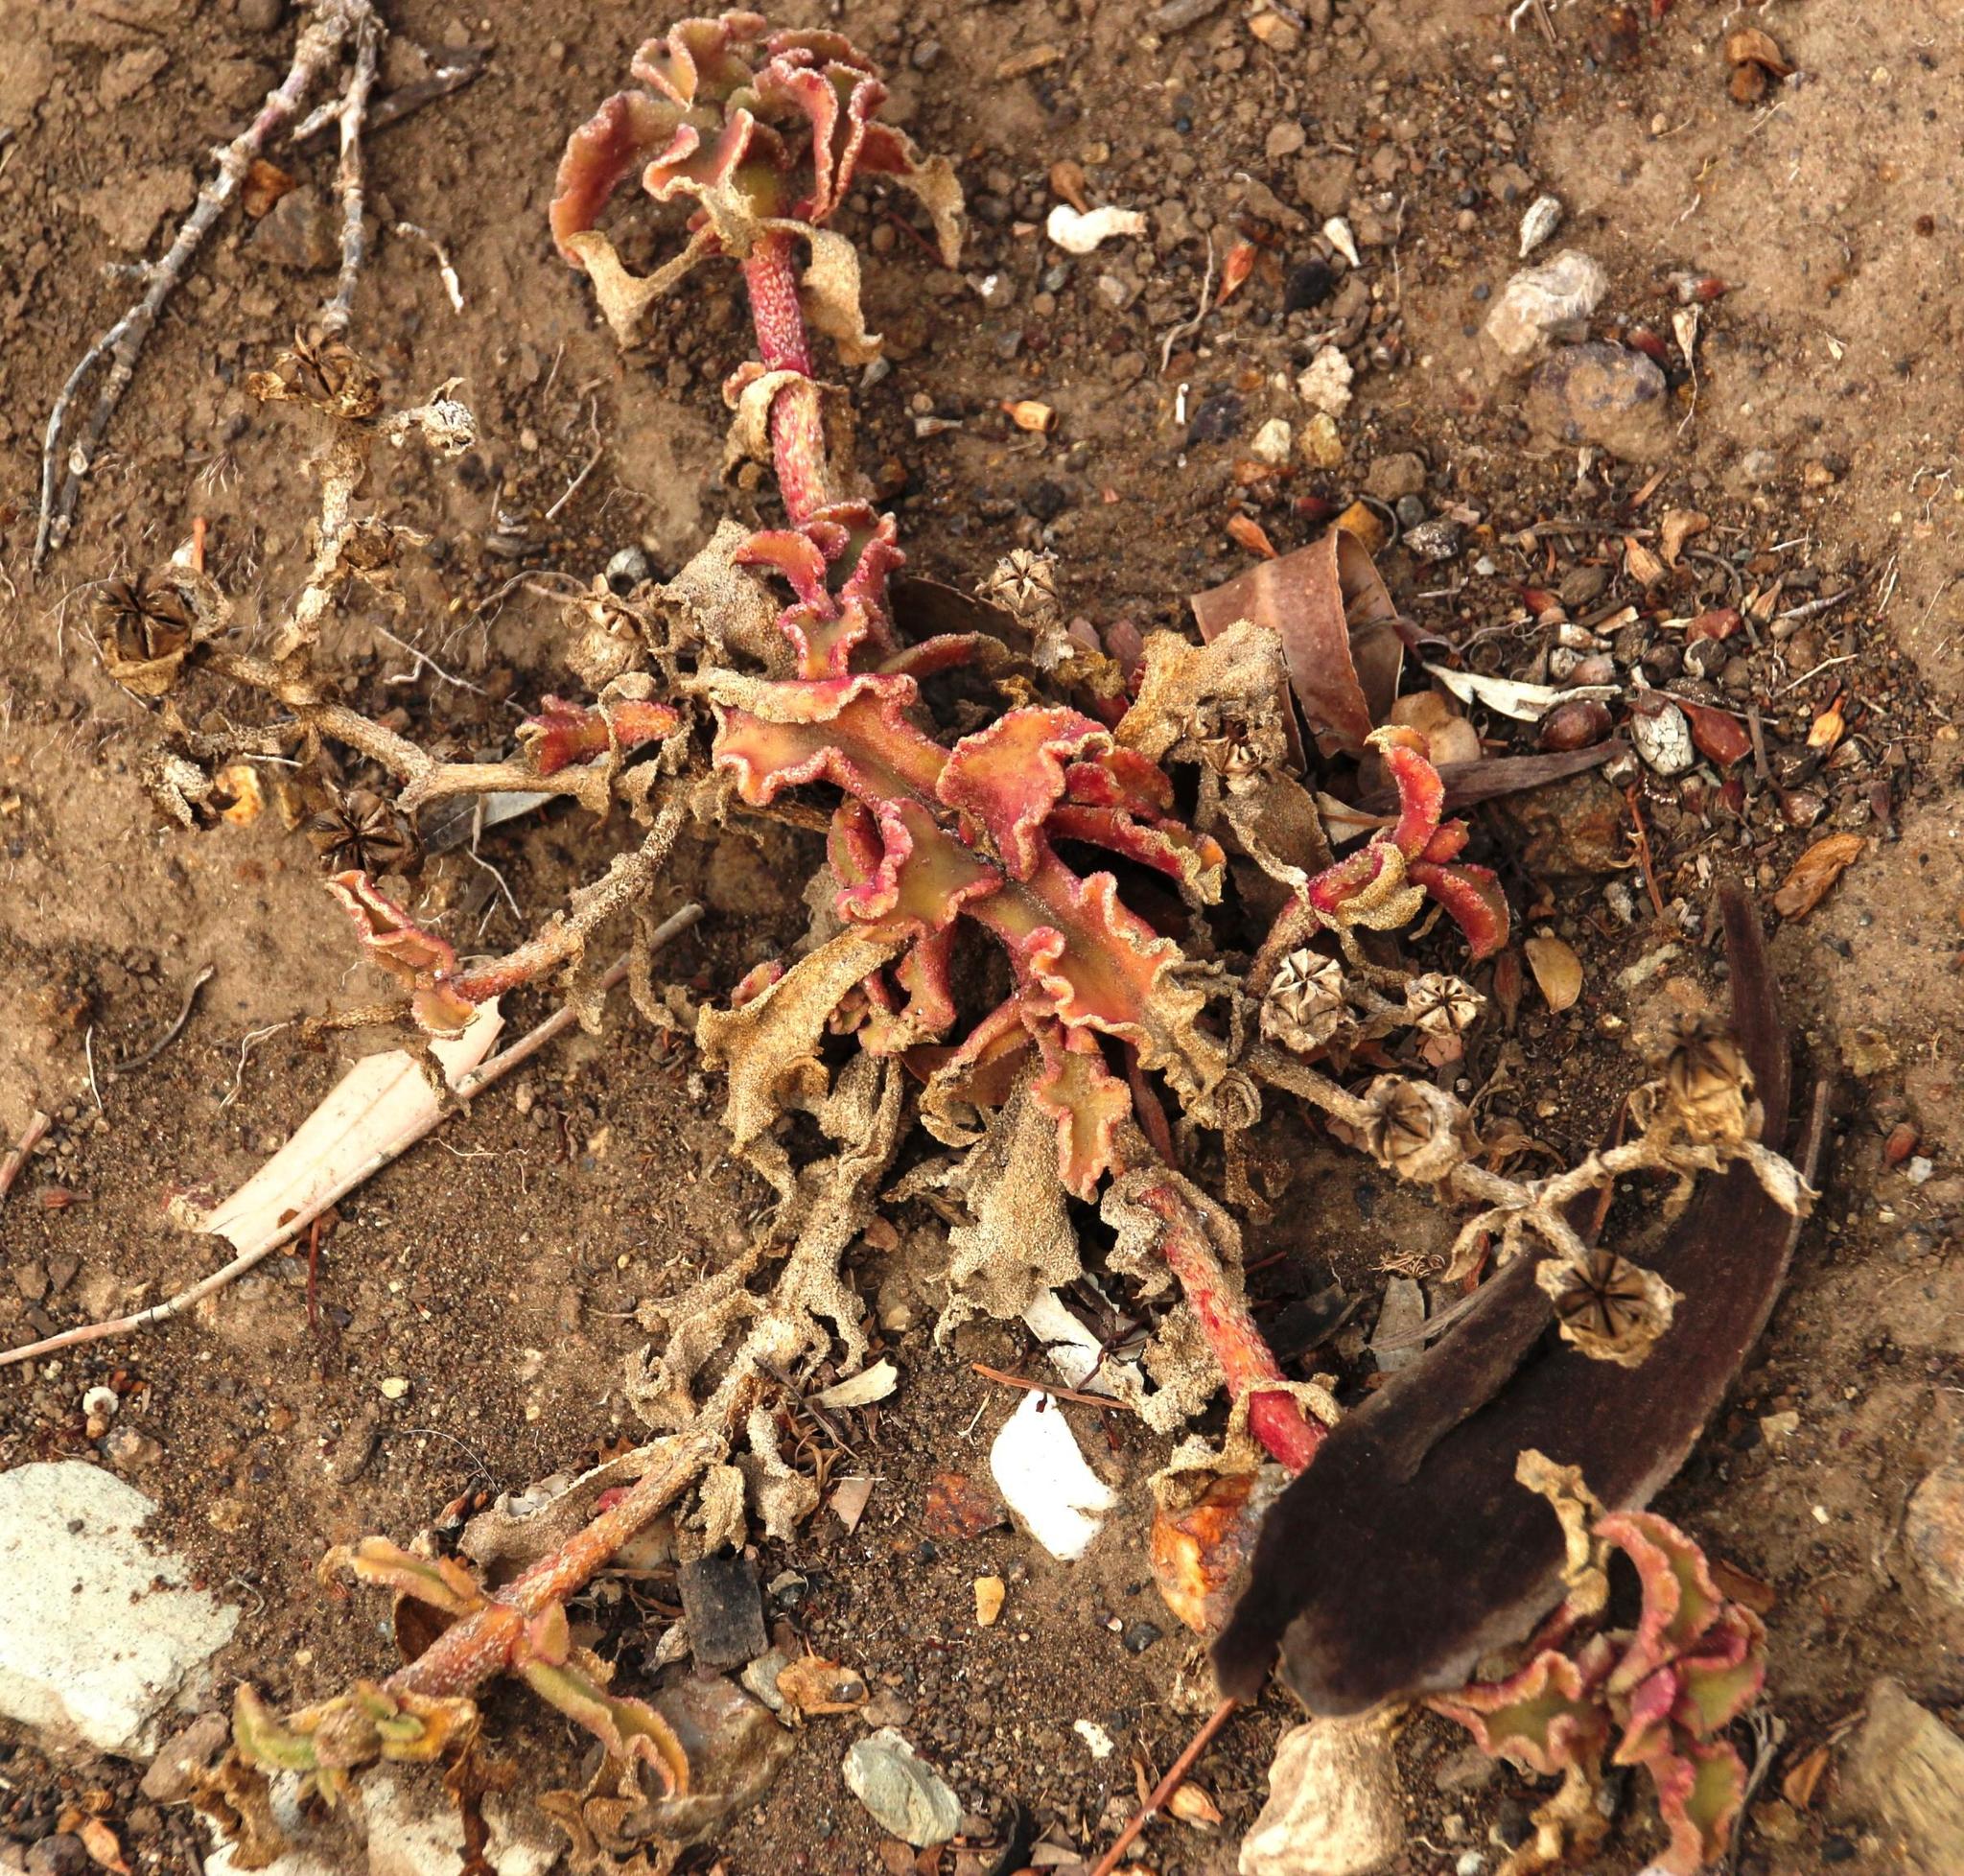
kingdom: Plantae
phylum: Tracheophyta
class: Magnoliopsida
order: Caryophyllales
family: Aizoaceae
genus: Mesembryanthemum
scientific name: Mesembryanthemum crystallinum
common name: Common iceplant
